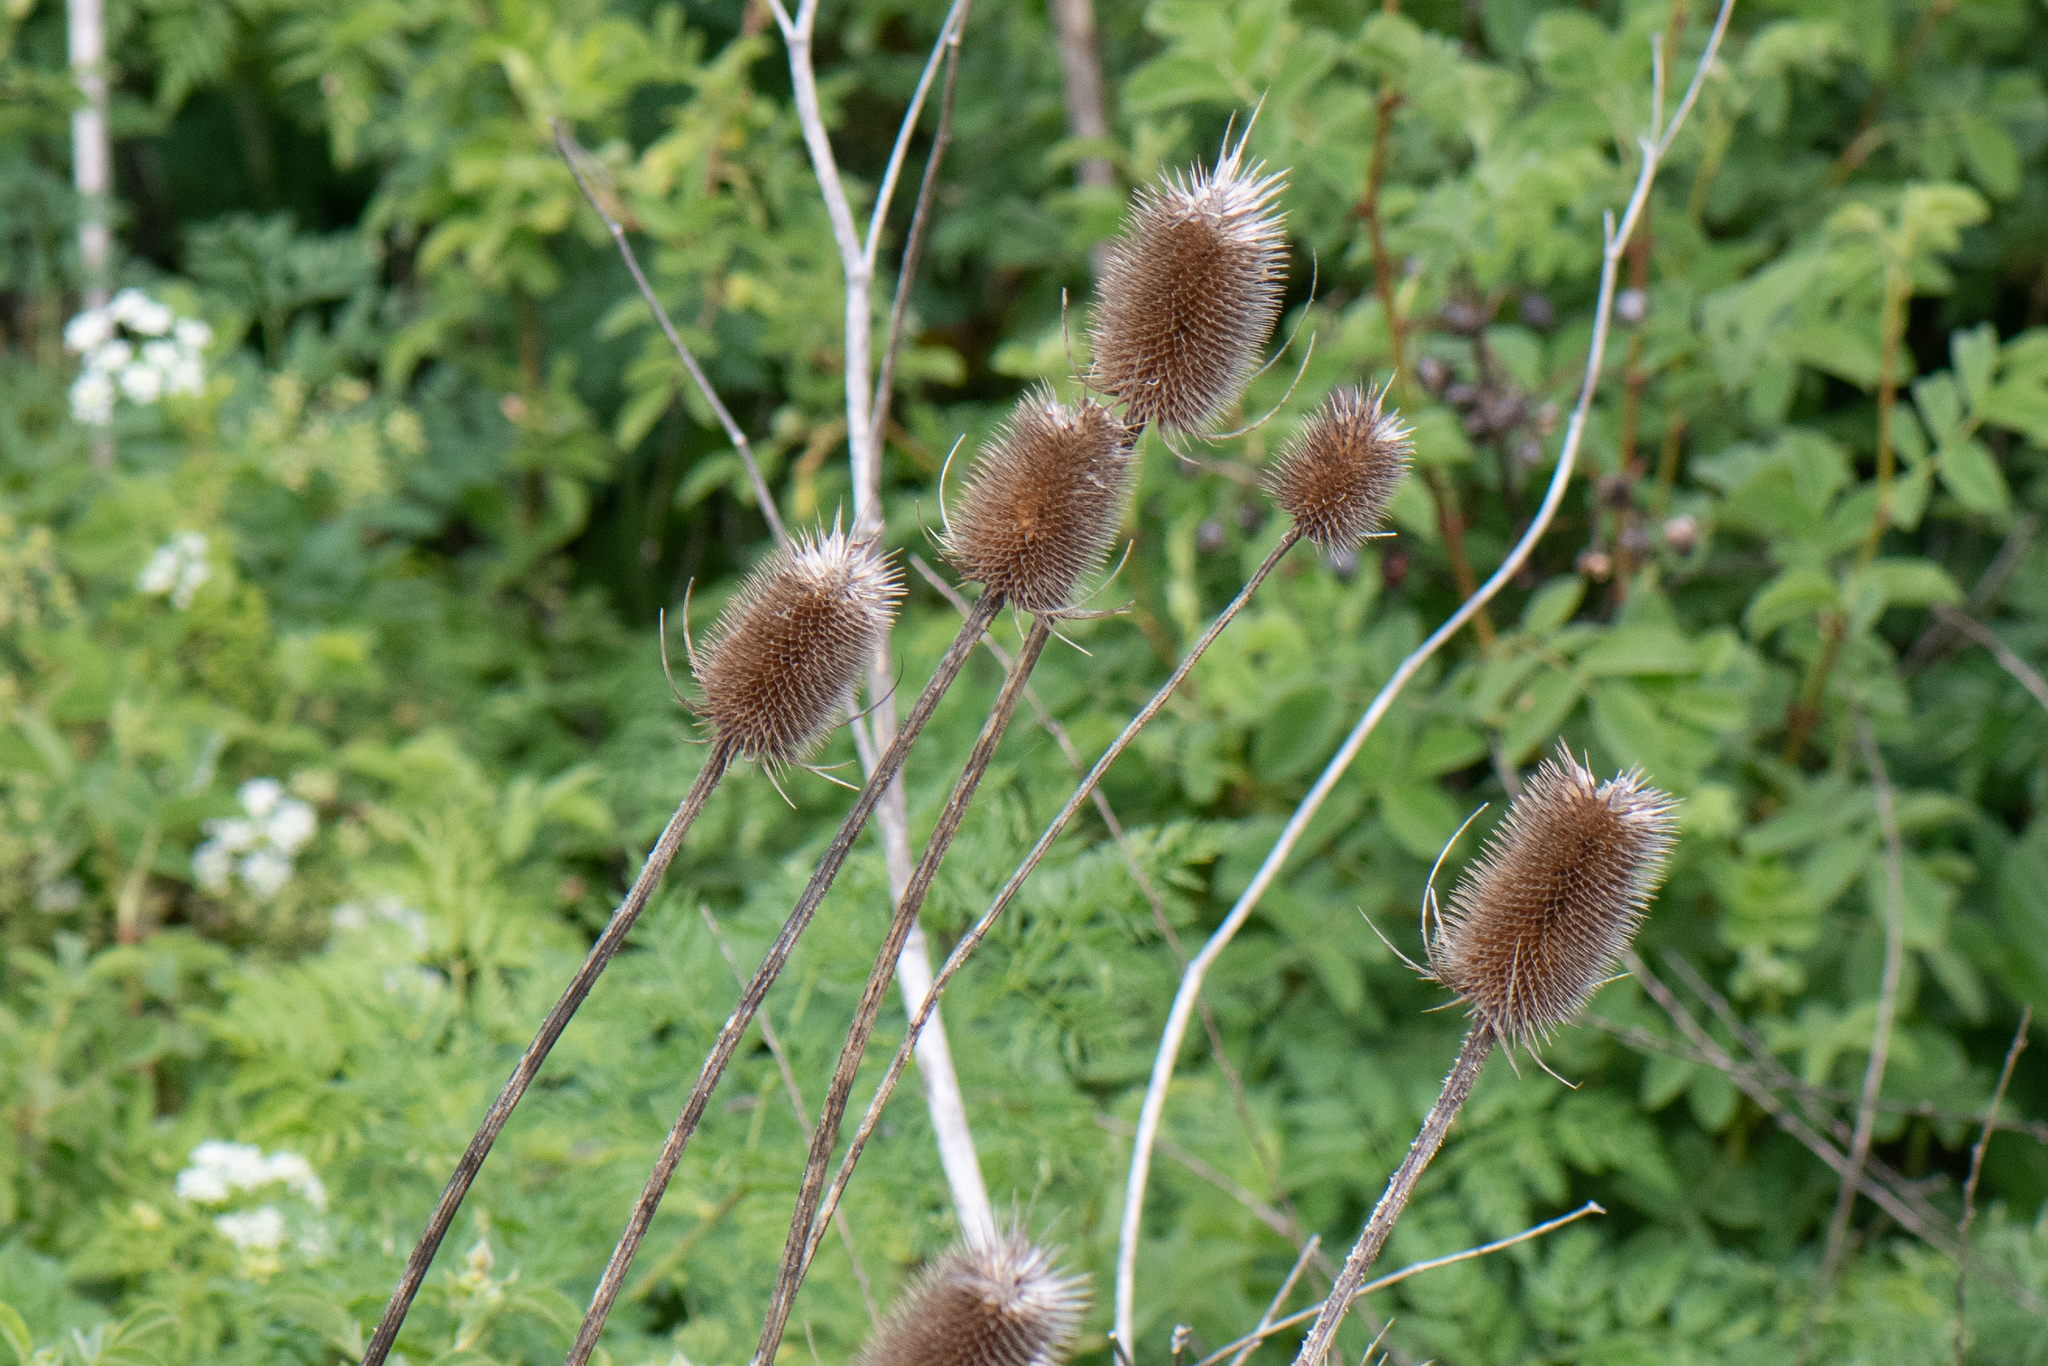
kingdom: Plantae
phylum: Tracheophyta
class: Magnoliopsida
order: Dipsacales
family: Caprifoliaceae
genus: Dipsacus
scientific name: Dipsacus fullonum
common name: Teasel
